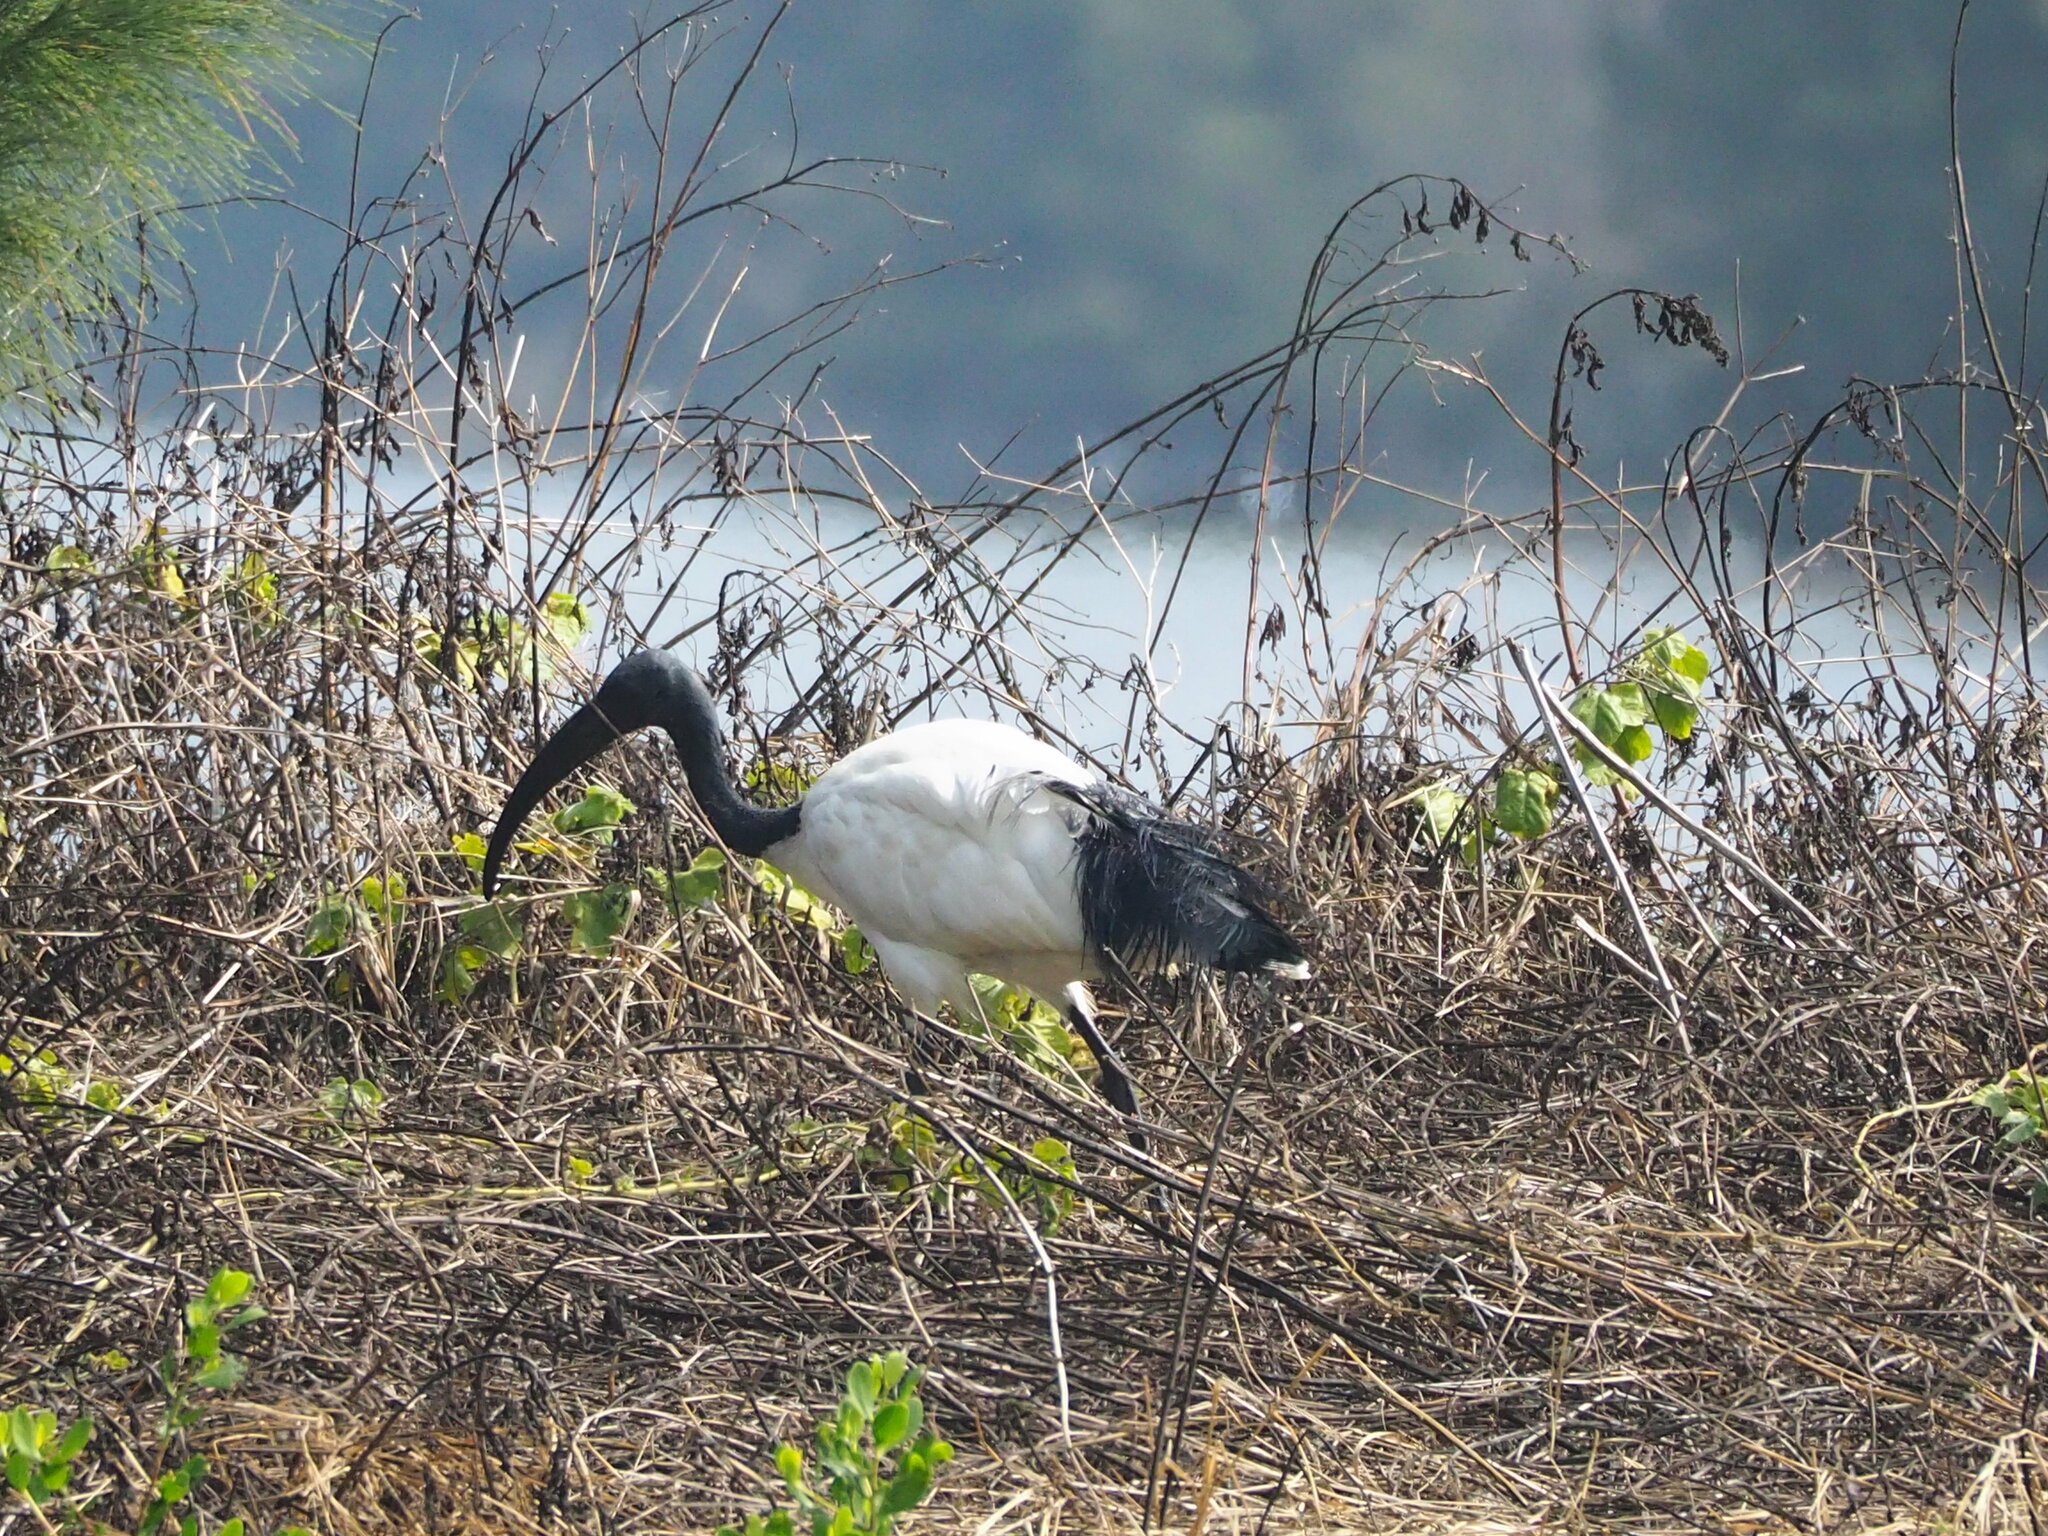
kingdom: Animalia
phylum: Chordata
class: Aves
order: Pelecaniformes
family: Threskiornithidae
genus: Threskiornis
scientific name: Threskiornis aethiopicus
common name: Sacred ibis
